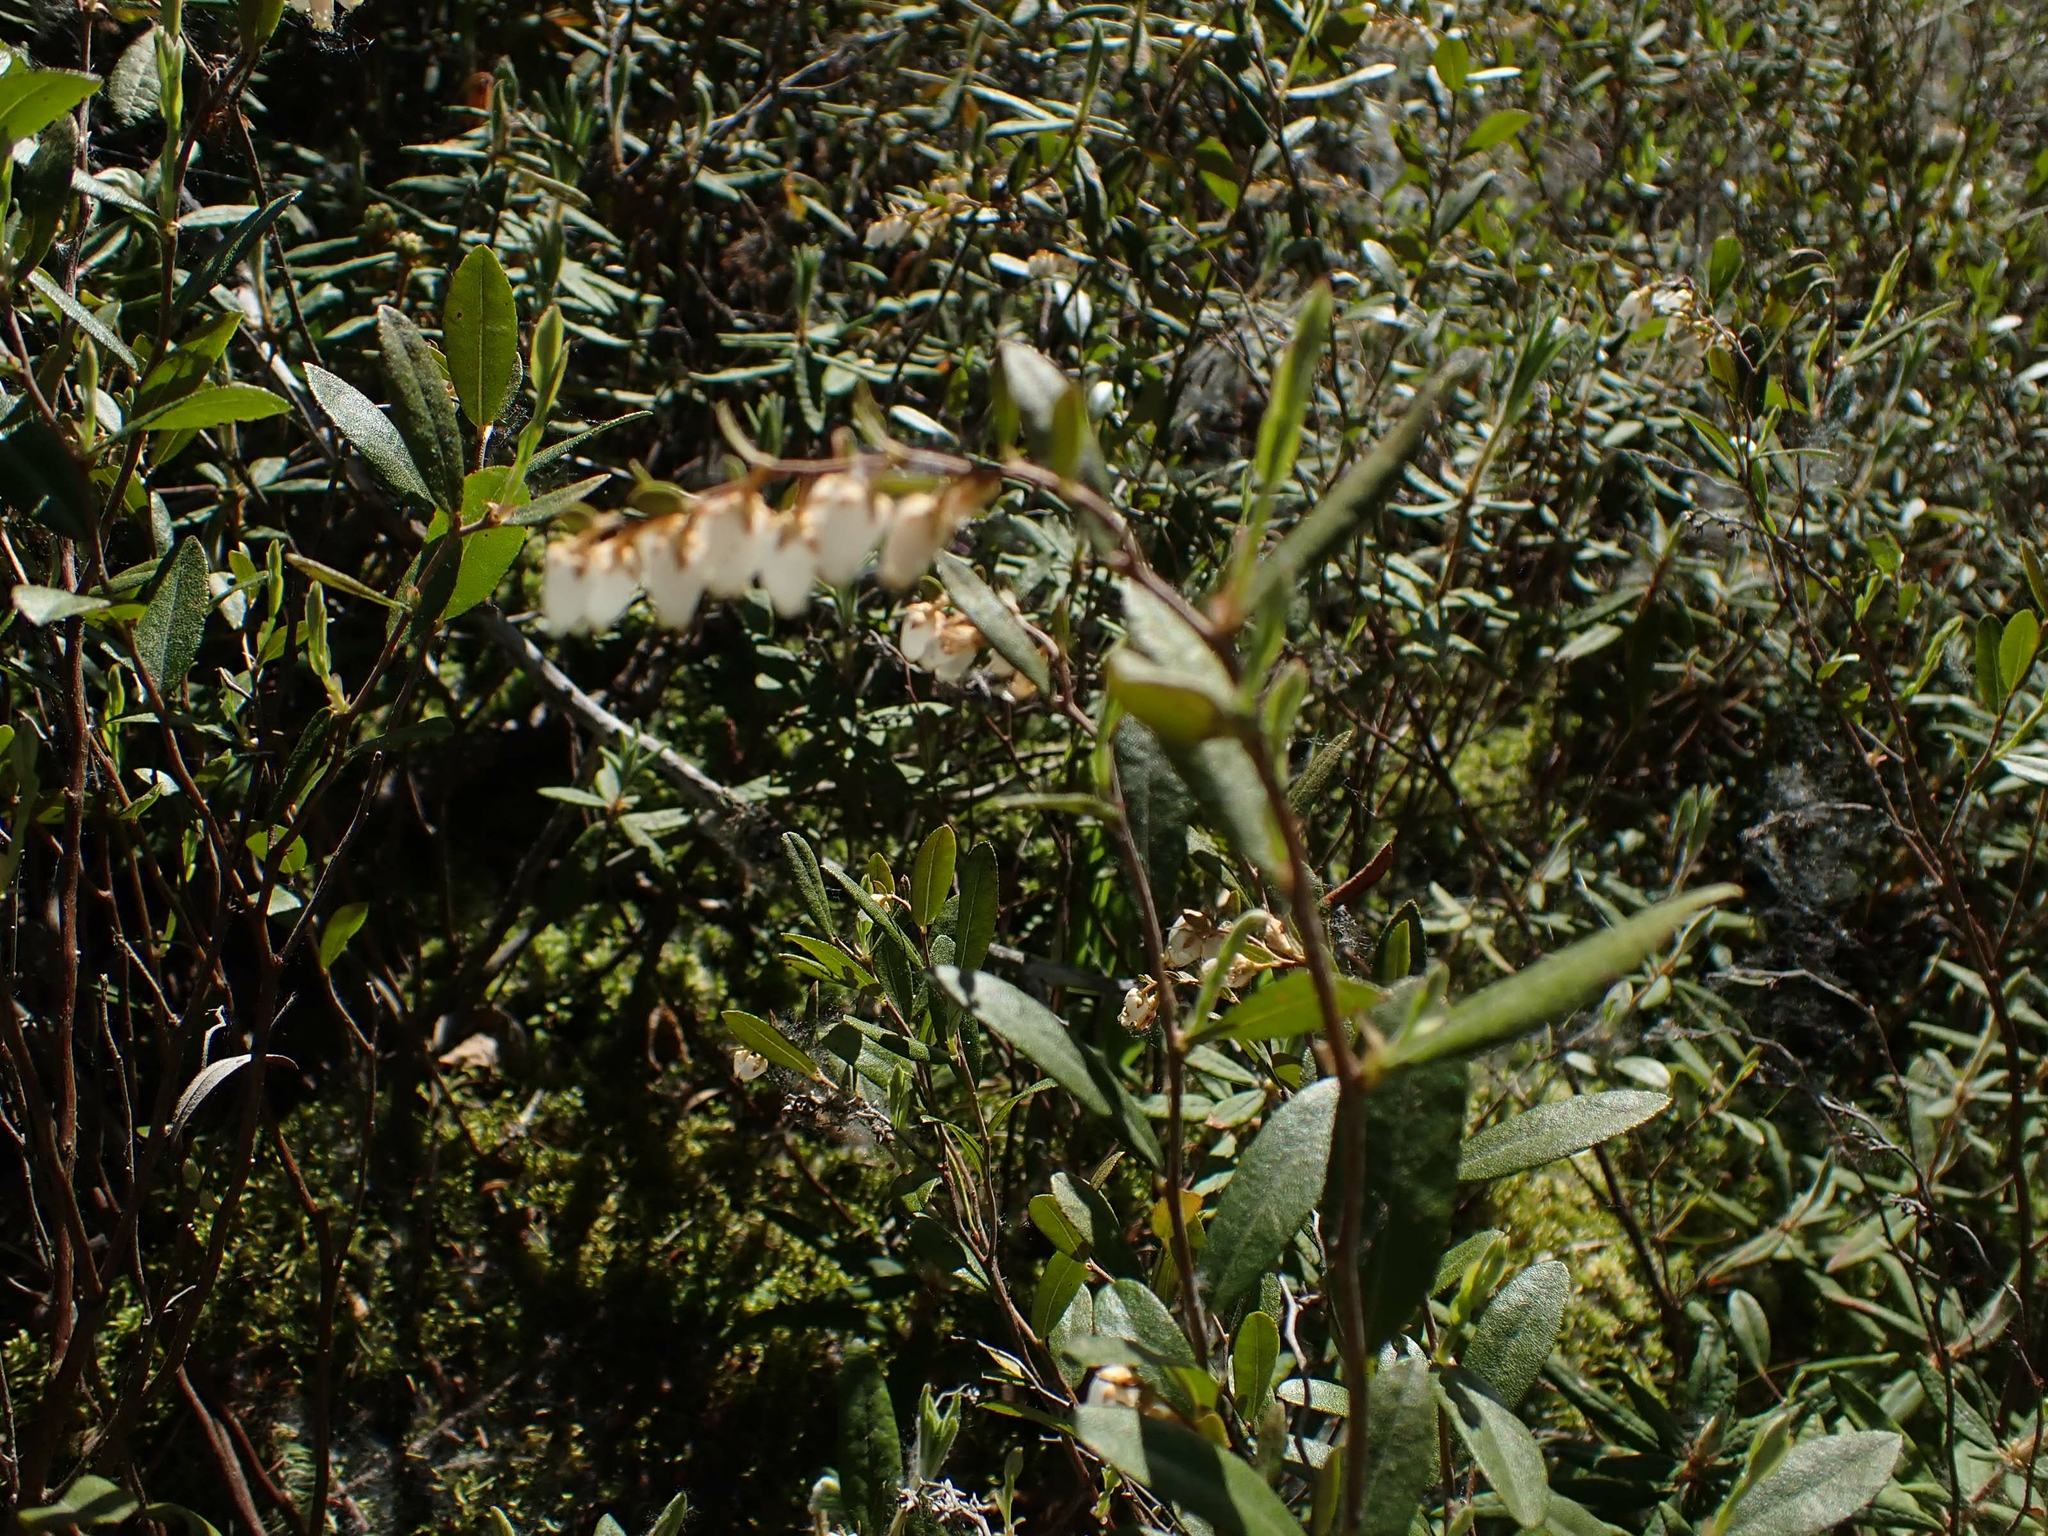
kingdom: Plantae
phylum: Tracheophyta
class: Magnoliopsida
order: Ericales
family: Ericaceae
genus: Chamaedaphne
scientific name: Chamaedaphne calyculata
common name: Leatherleaf
